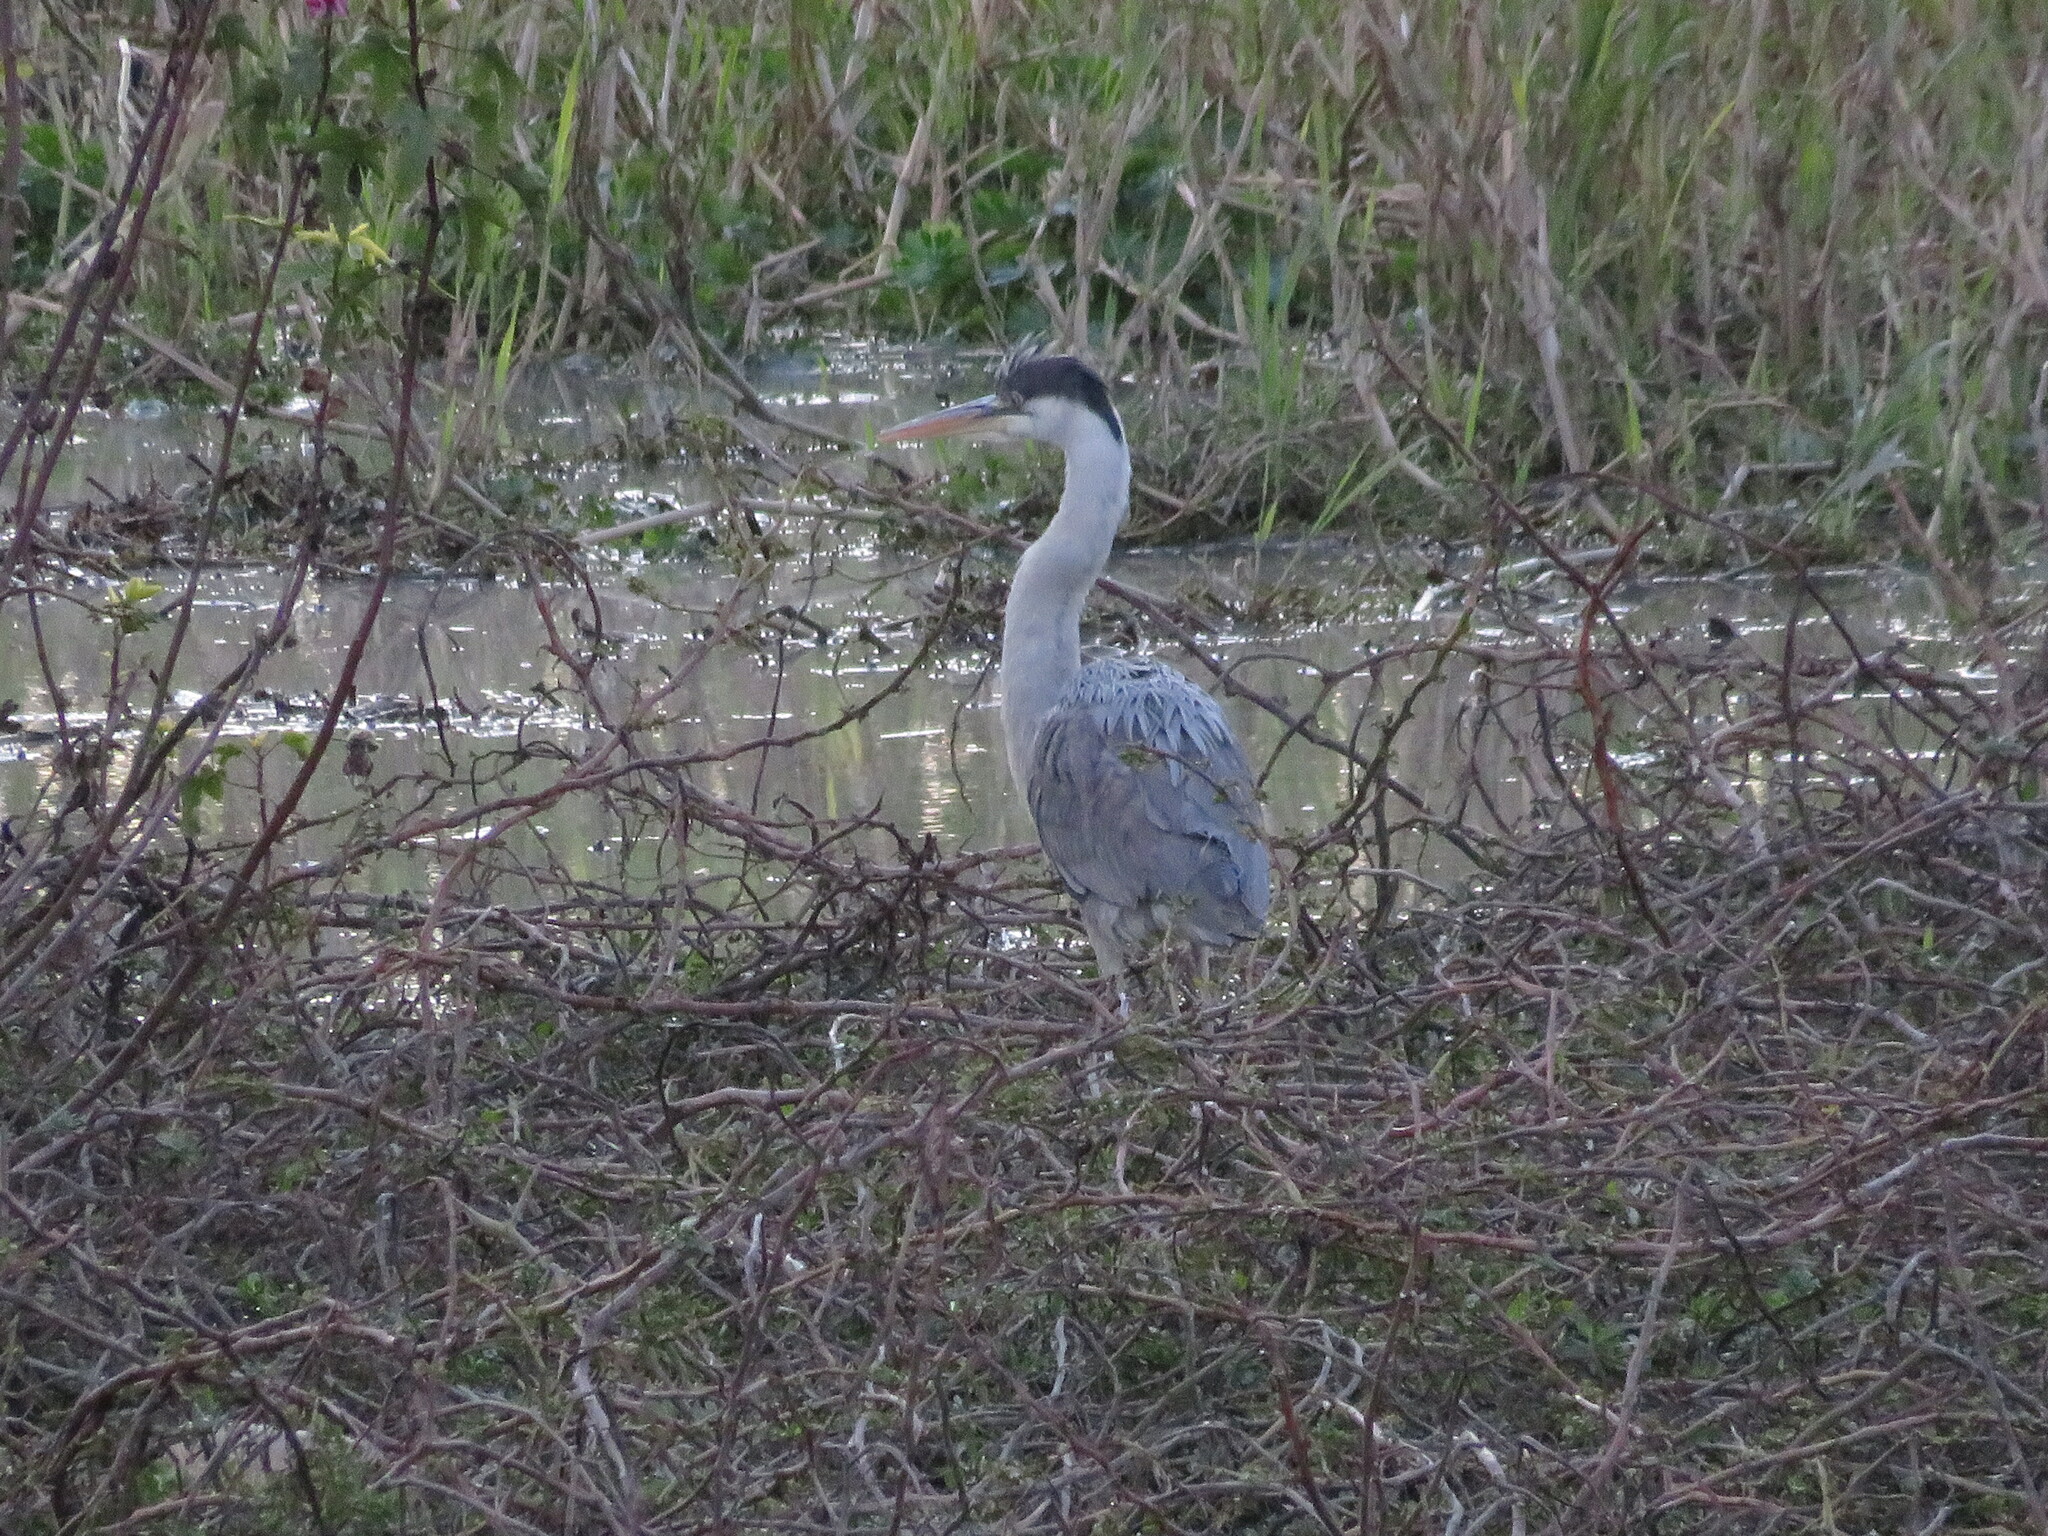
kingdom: Animalia
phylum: Chordata
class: Aves
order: Pelecaniformes
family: Ardeidae
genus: Ardea
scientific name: Ardea cocoi
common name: Cocoi heron
